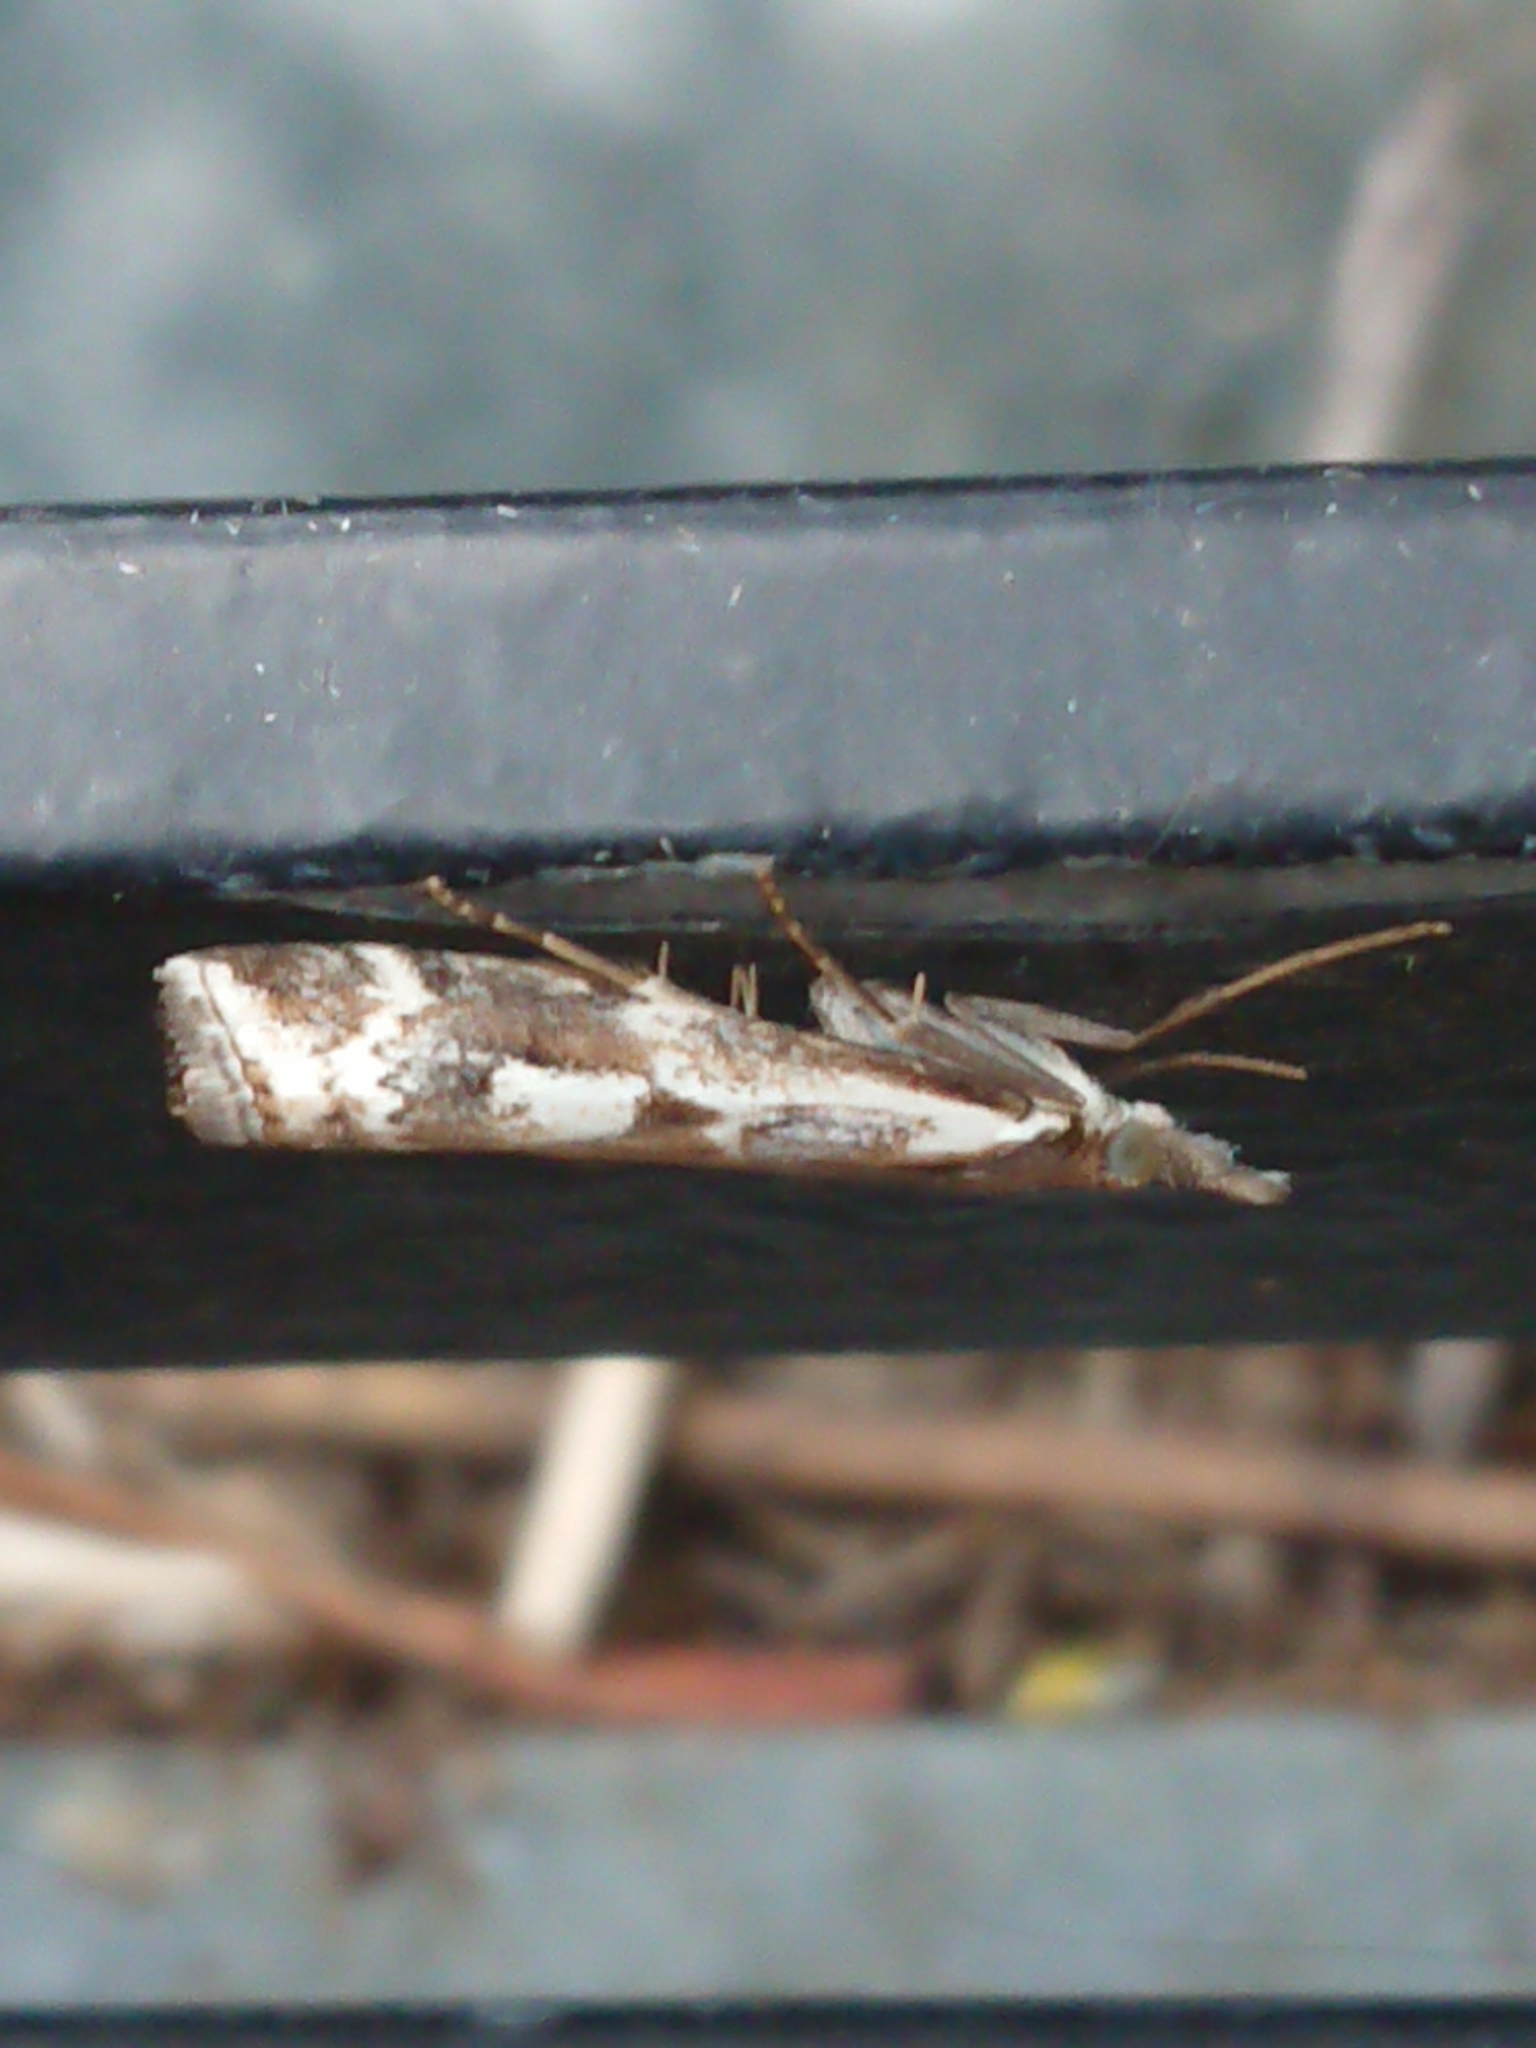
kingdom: Animalia
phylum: Arthropoda
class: Insecta
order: Lepidoptera
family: Crambidae
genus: Orocrambus
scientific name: Orocrambus vulgaris
